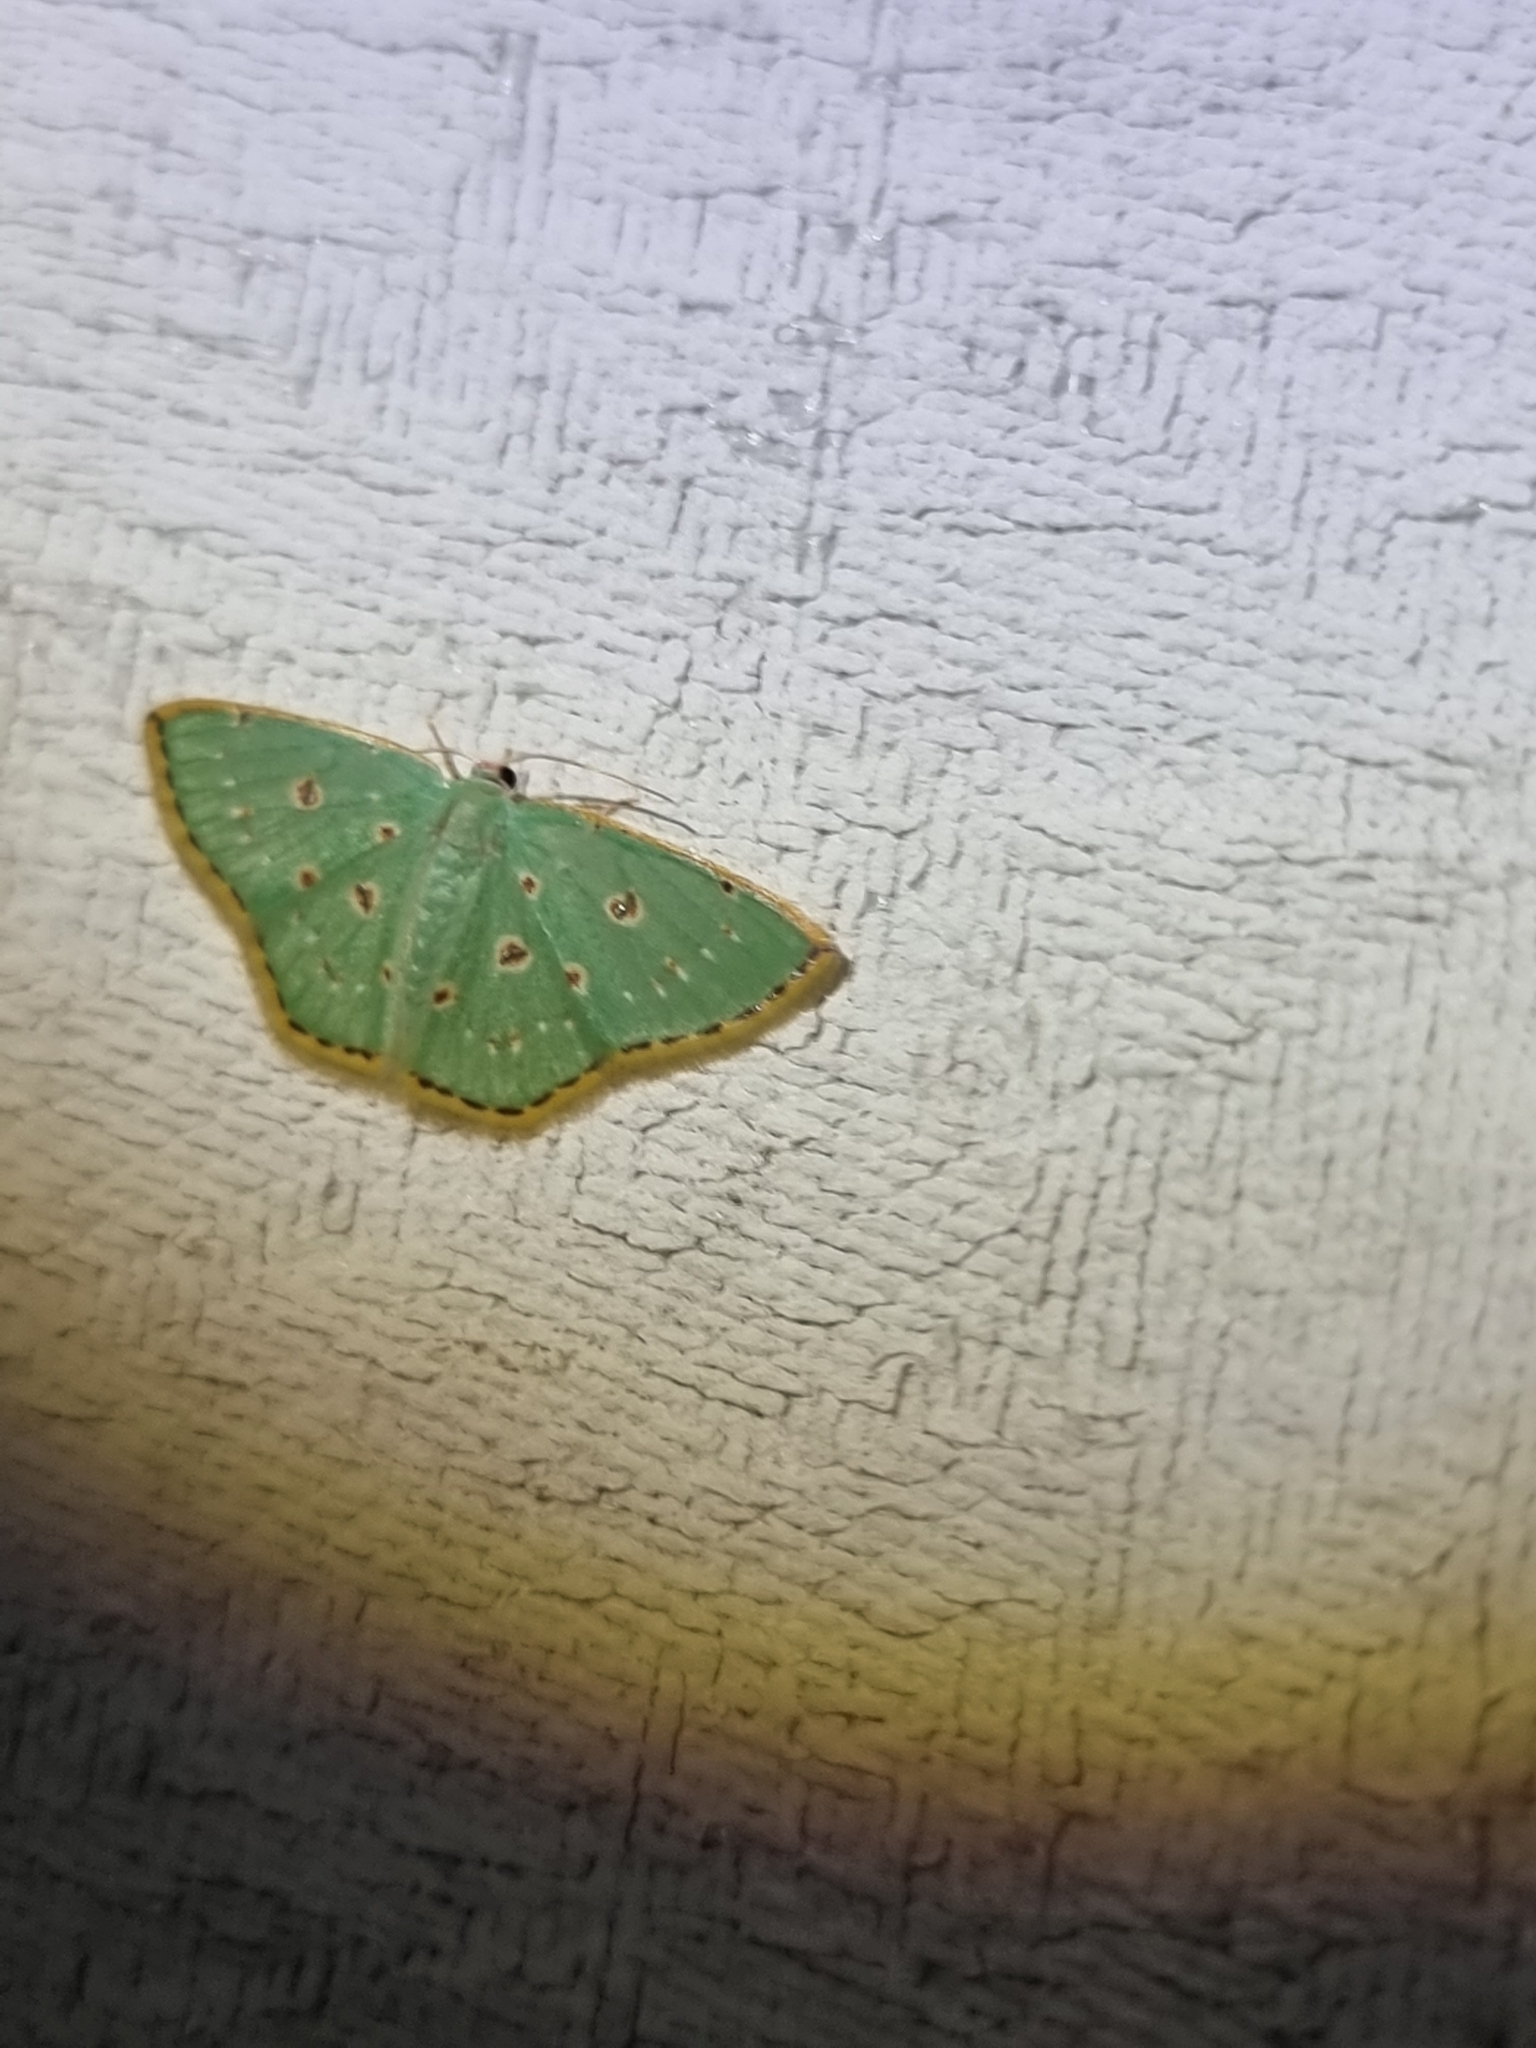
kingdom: Animalia
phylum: Arthropoda
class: Insecta
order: Lepidoptera
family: Geometridae
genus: Comostola
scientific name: Comostola laesaria
